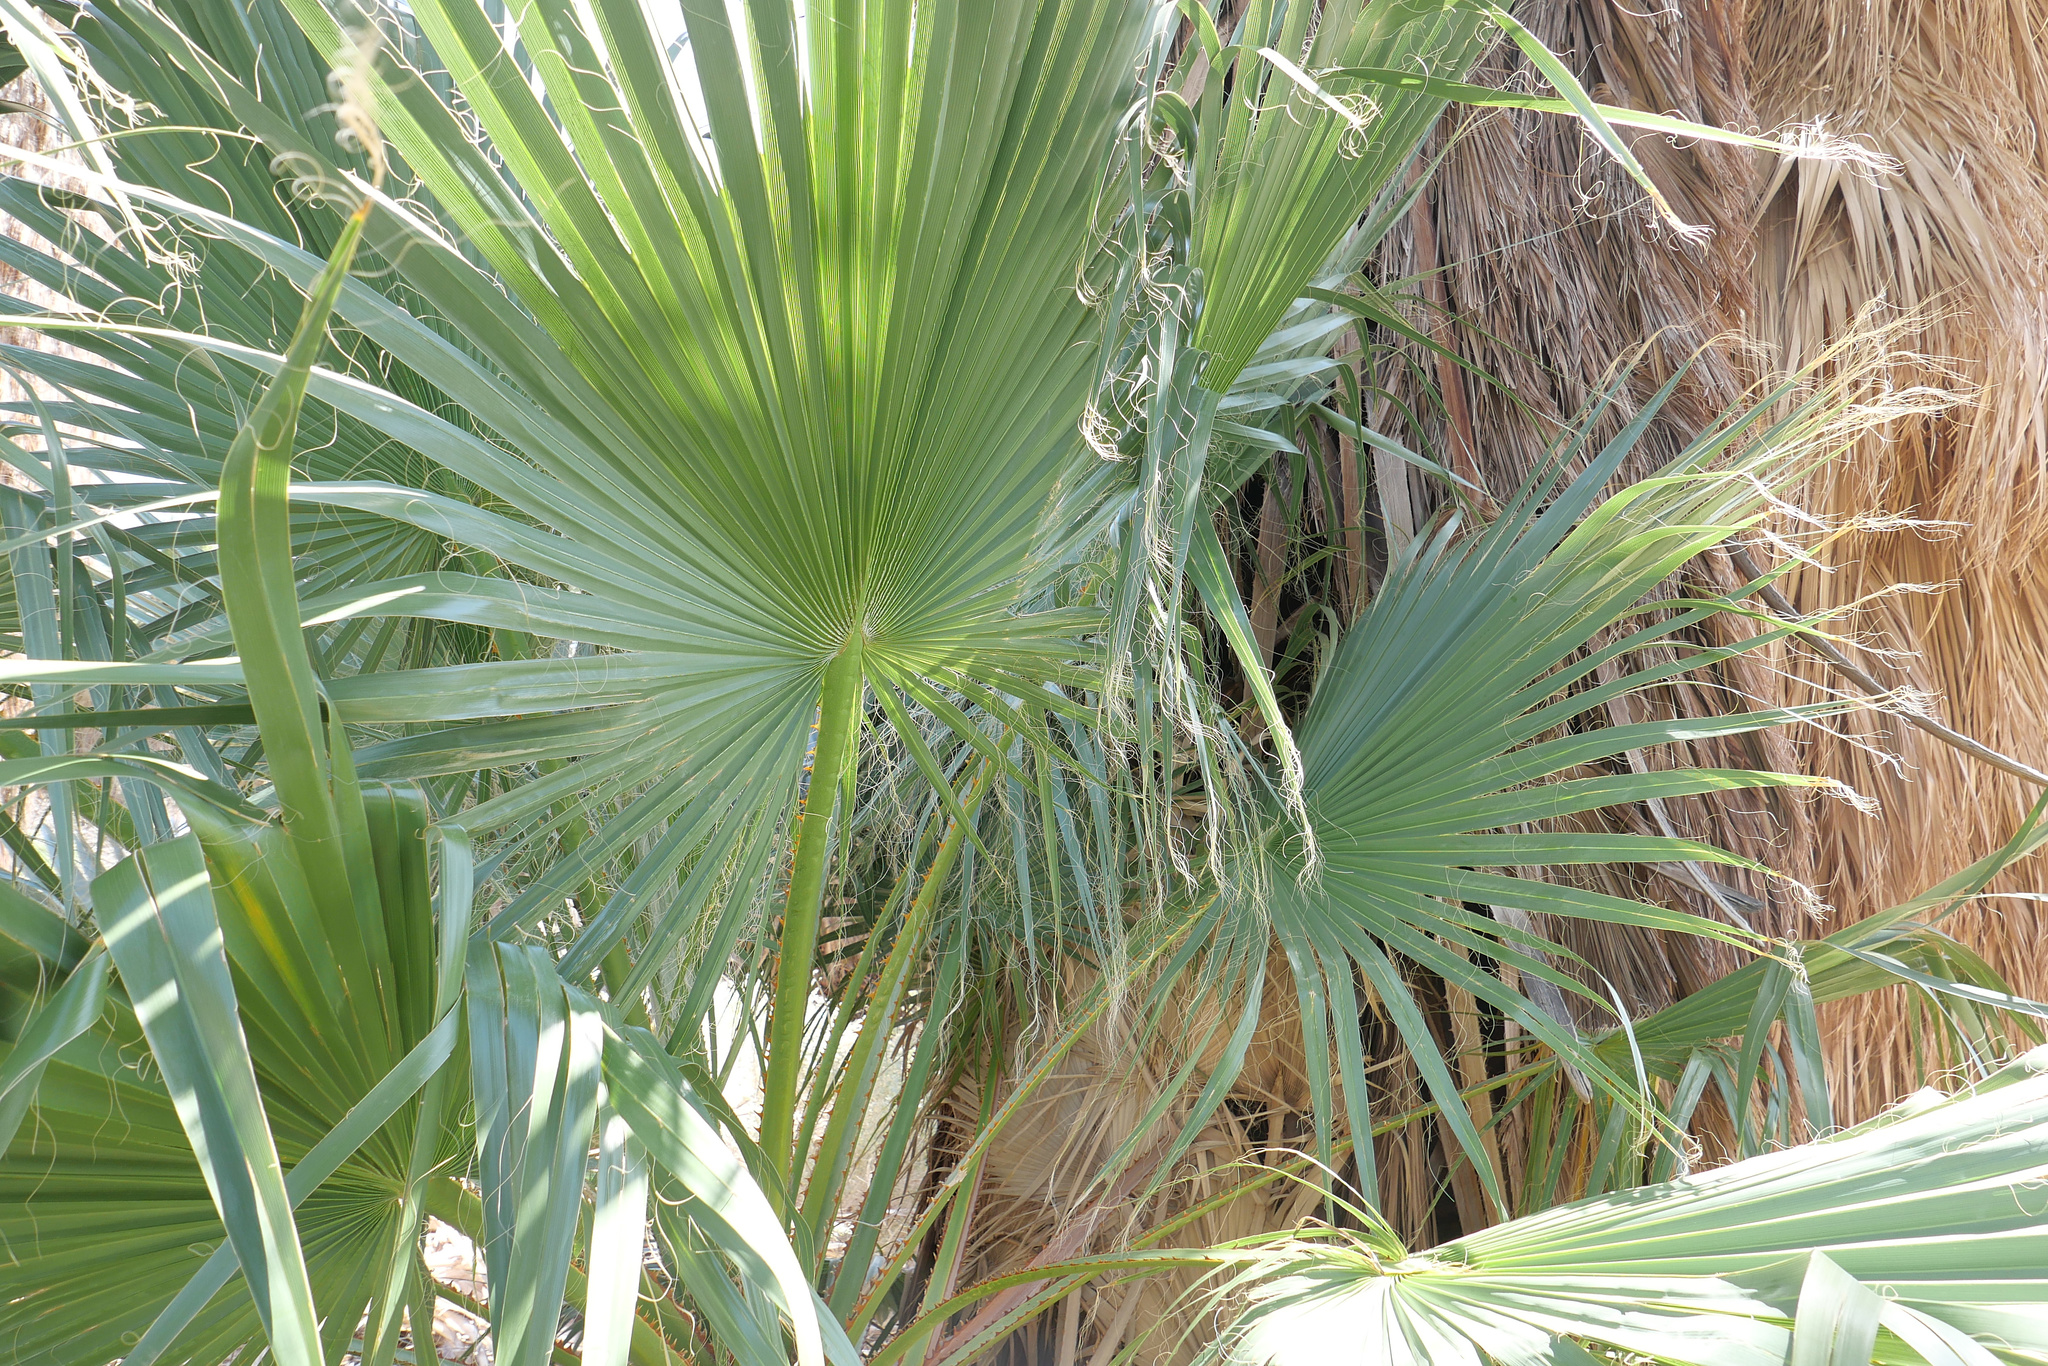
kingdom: Plantae
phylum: Tracheophyta
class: Liliopsida
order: Arecales
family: Arecaceae
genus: Washingtonia
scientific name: Washingtonia filifera
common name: California fan palm
